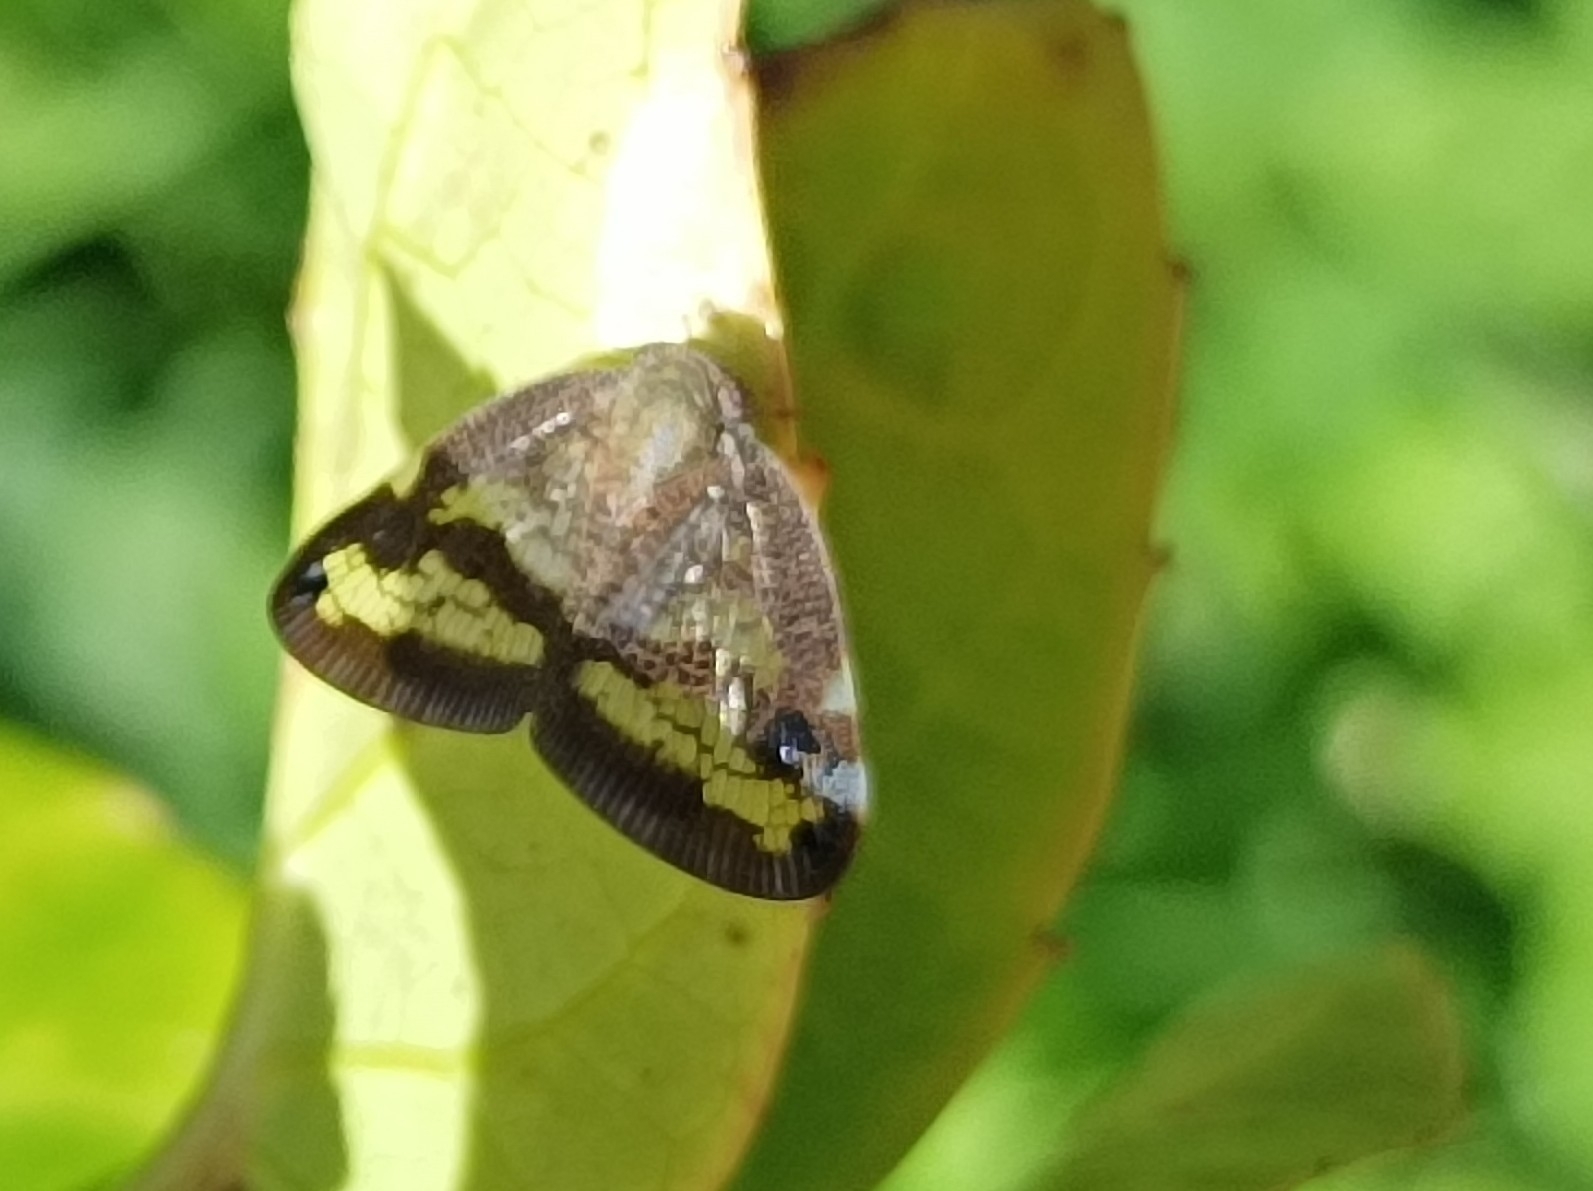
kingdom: Animalia
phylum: Arthropoda
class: Insecta
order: Hemiptera
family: Ricaniidae
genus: Parapiromis
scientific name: Parapiromis translucida
